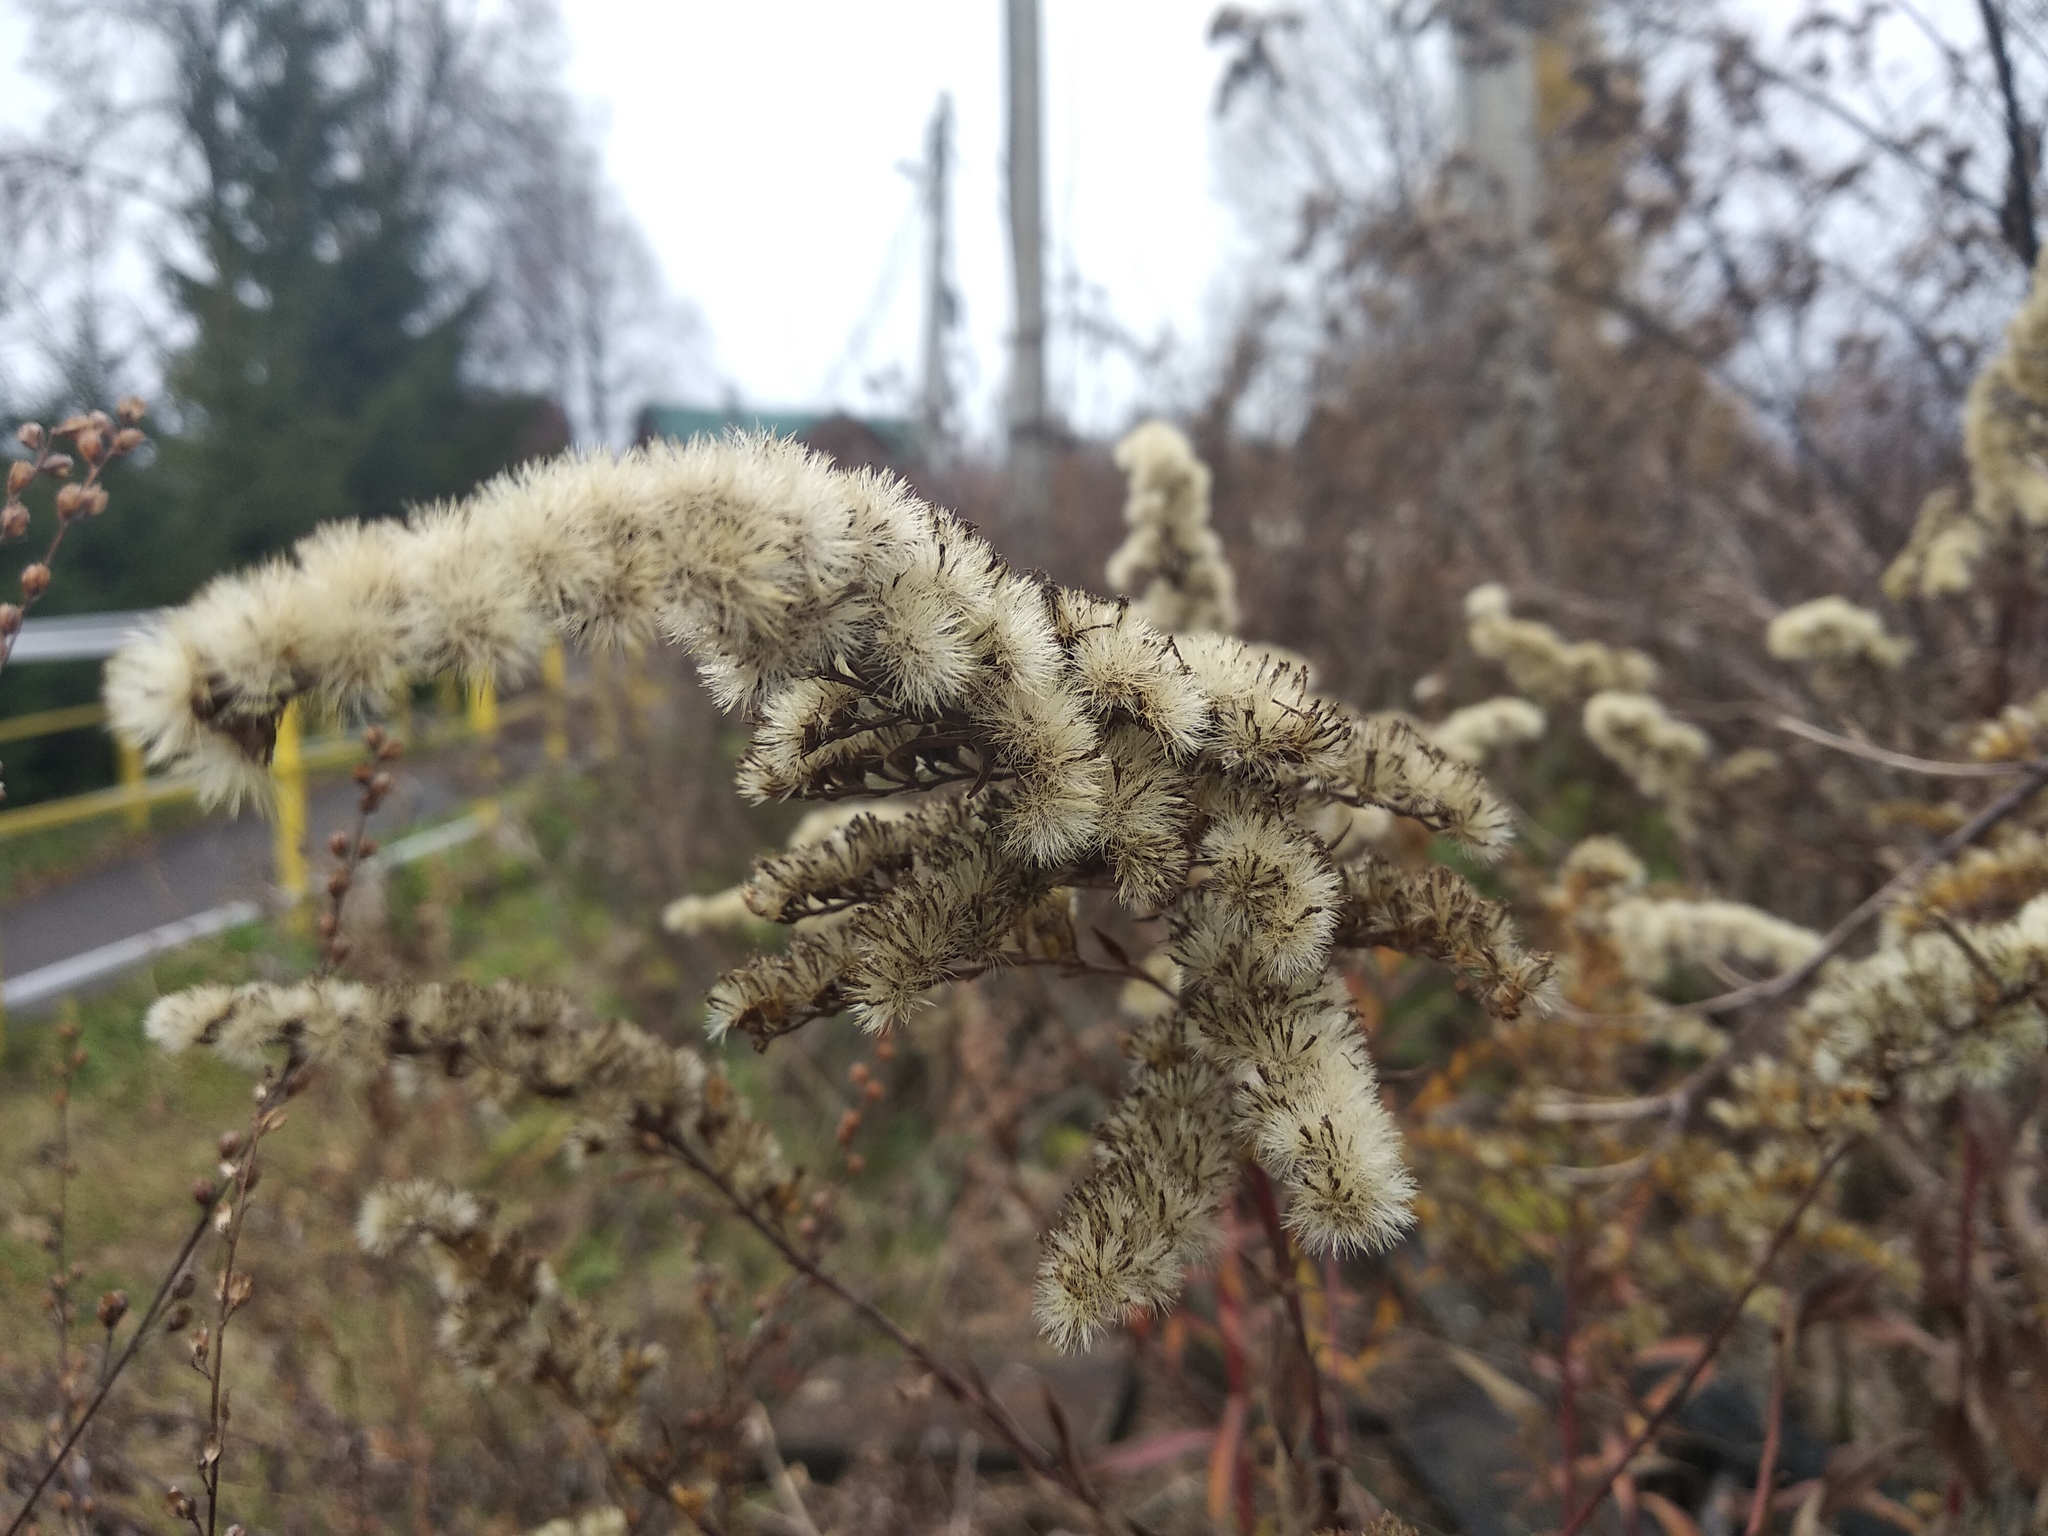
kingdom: Plantae
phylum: Tracheophyta
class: Magnoliopsida
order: Asterales
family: Asteraceae
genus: Solidago
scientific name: Solidago gigantea
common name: Giant goldenrod
